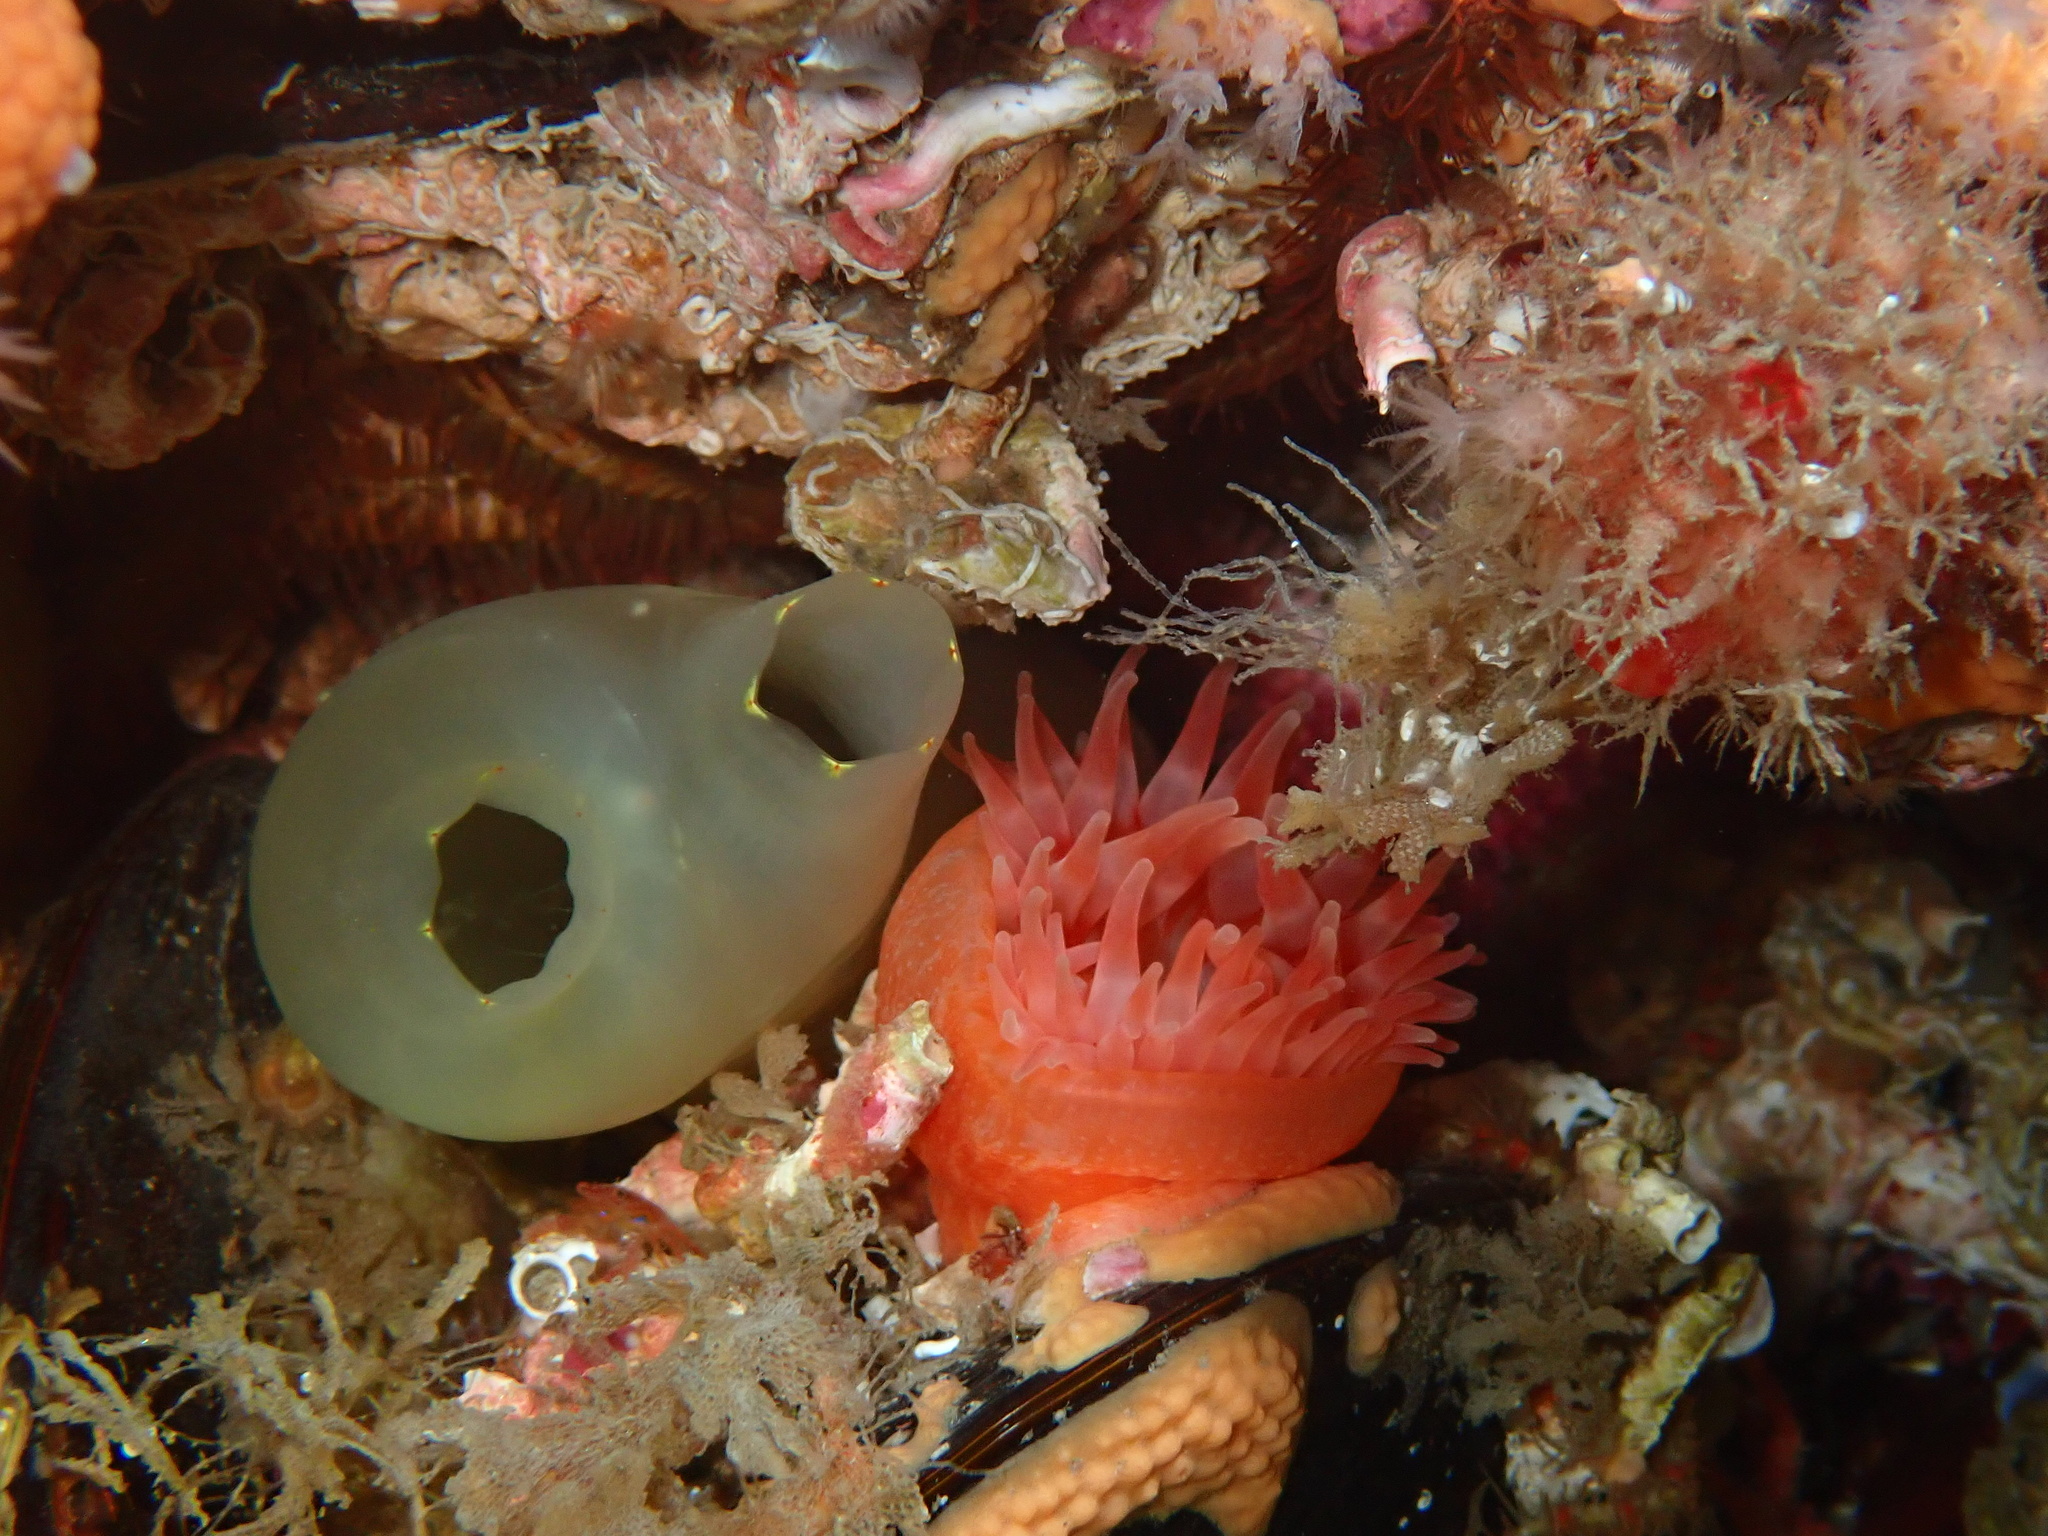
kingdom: Animalia
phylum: Chordata
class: Ascidiacea
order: Stolidobranchia
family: Pyuridae
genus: Boltenia
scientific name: Boltenia echinata
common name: Cactus sea squirt
